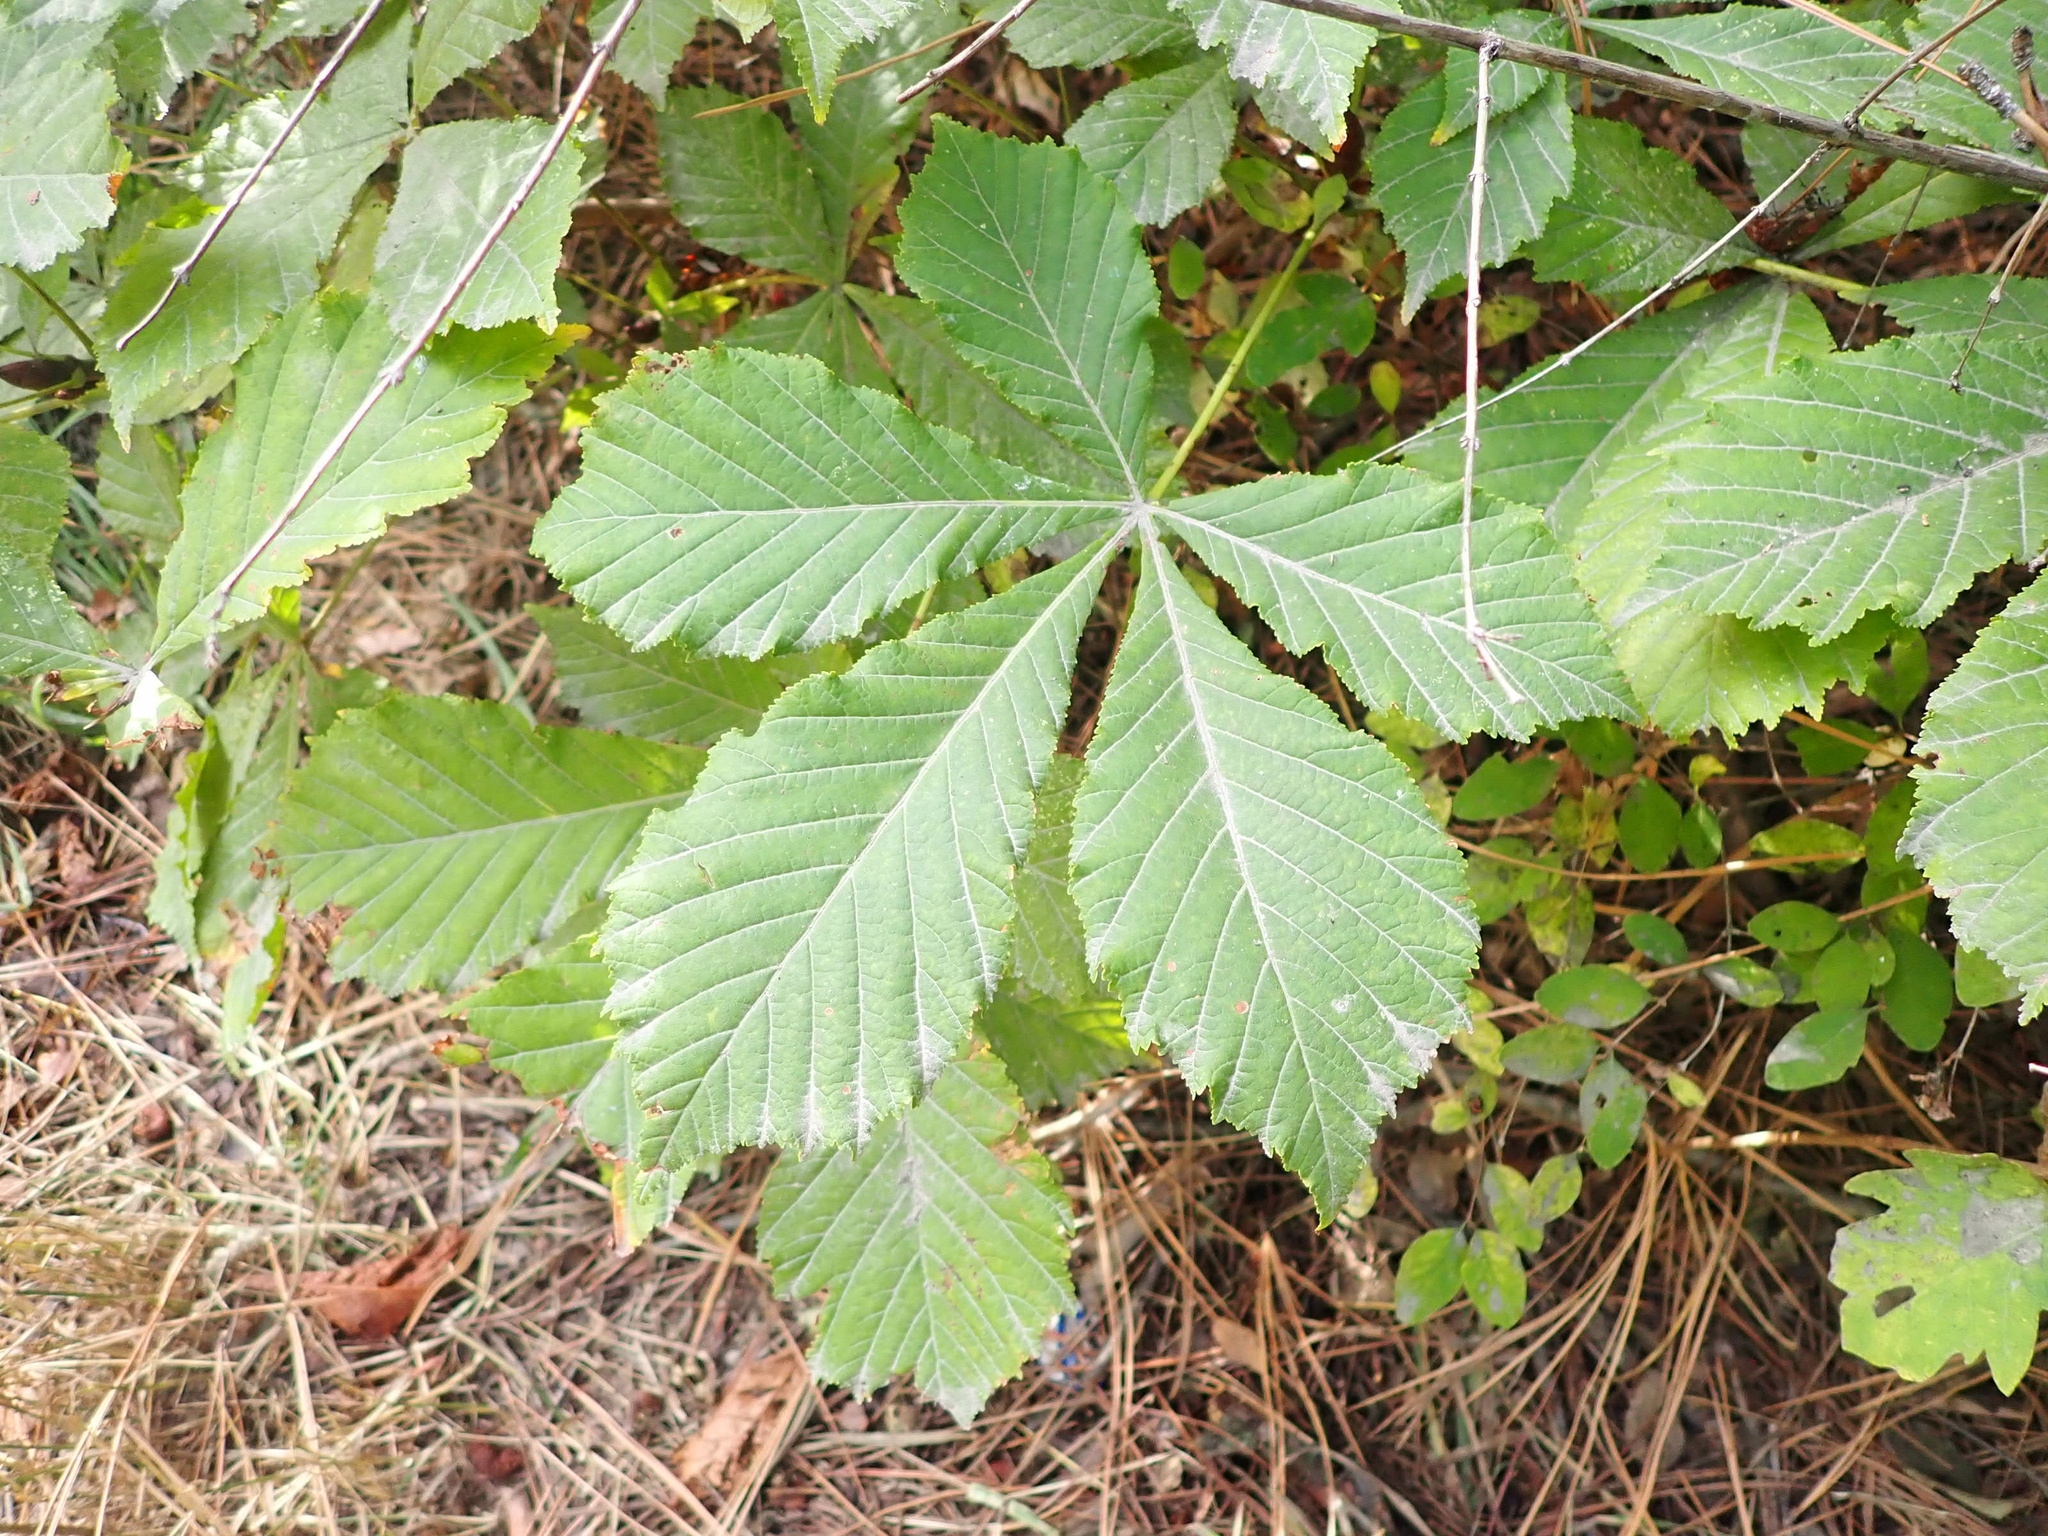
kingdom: Plantae
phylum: Tracheophyta
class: Magnoliopsida
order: Sapindales
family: Sapindaceae
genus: Aesculus
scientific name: Aesculus hippocastanum
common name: Horse-chestnut
